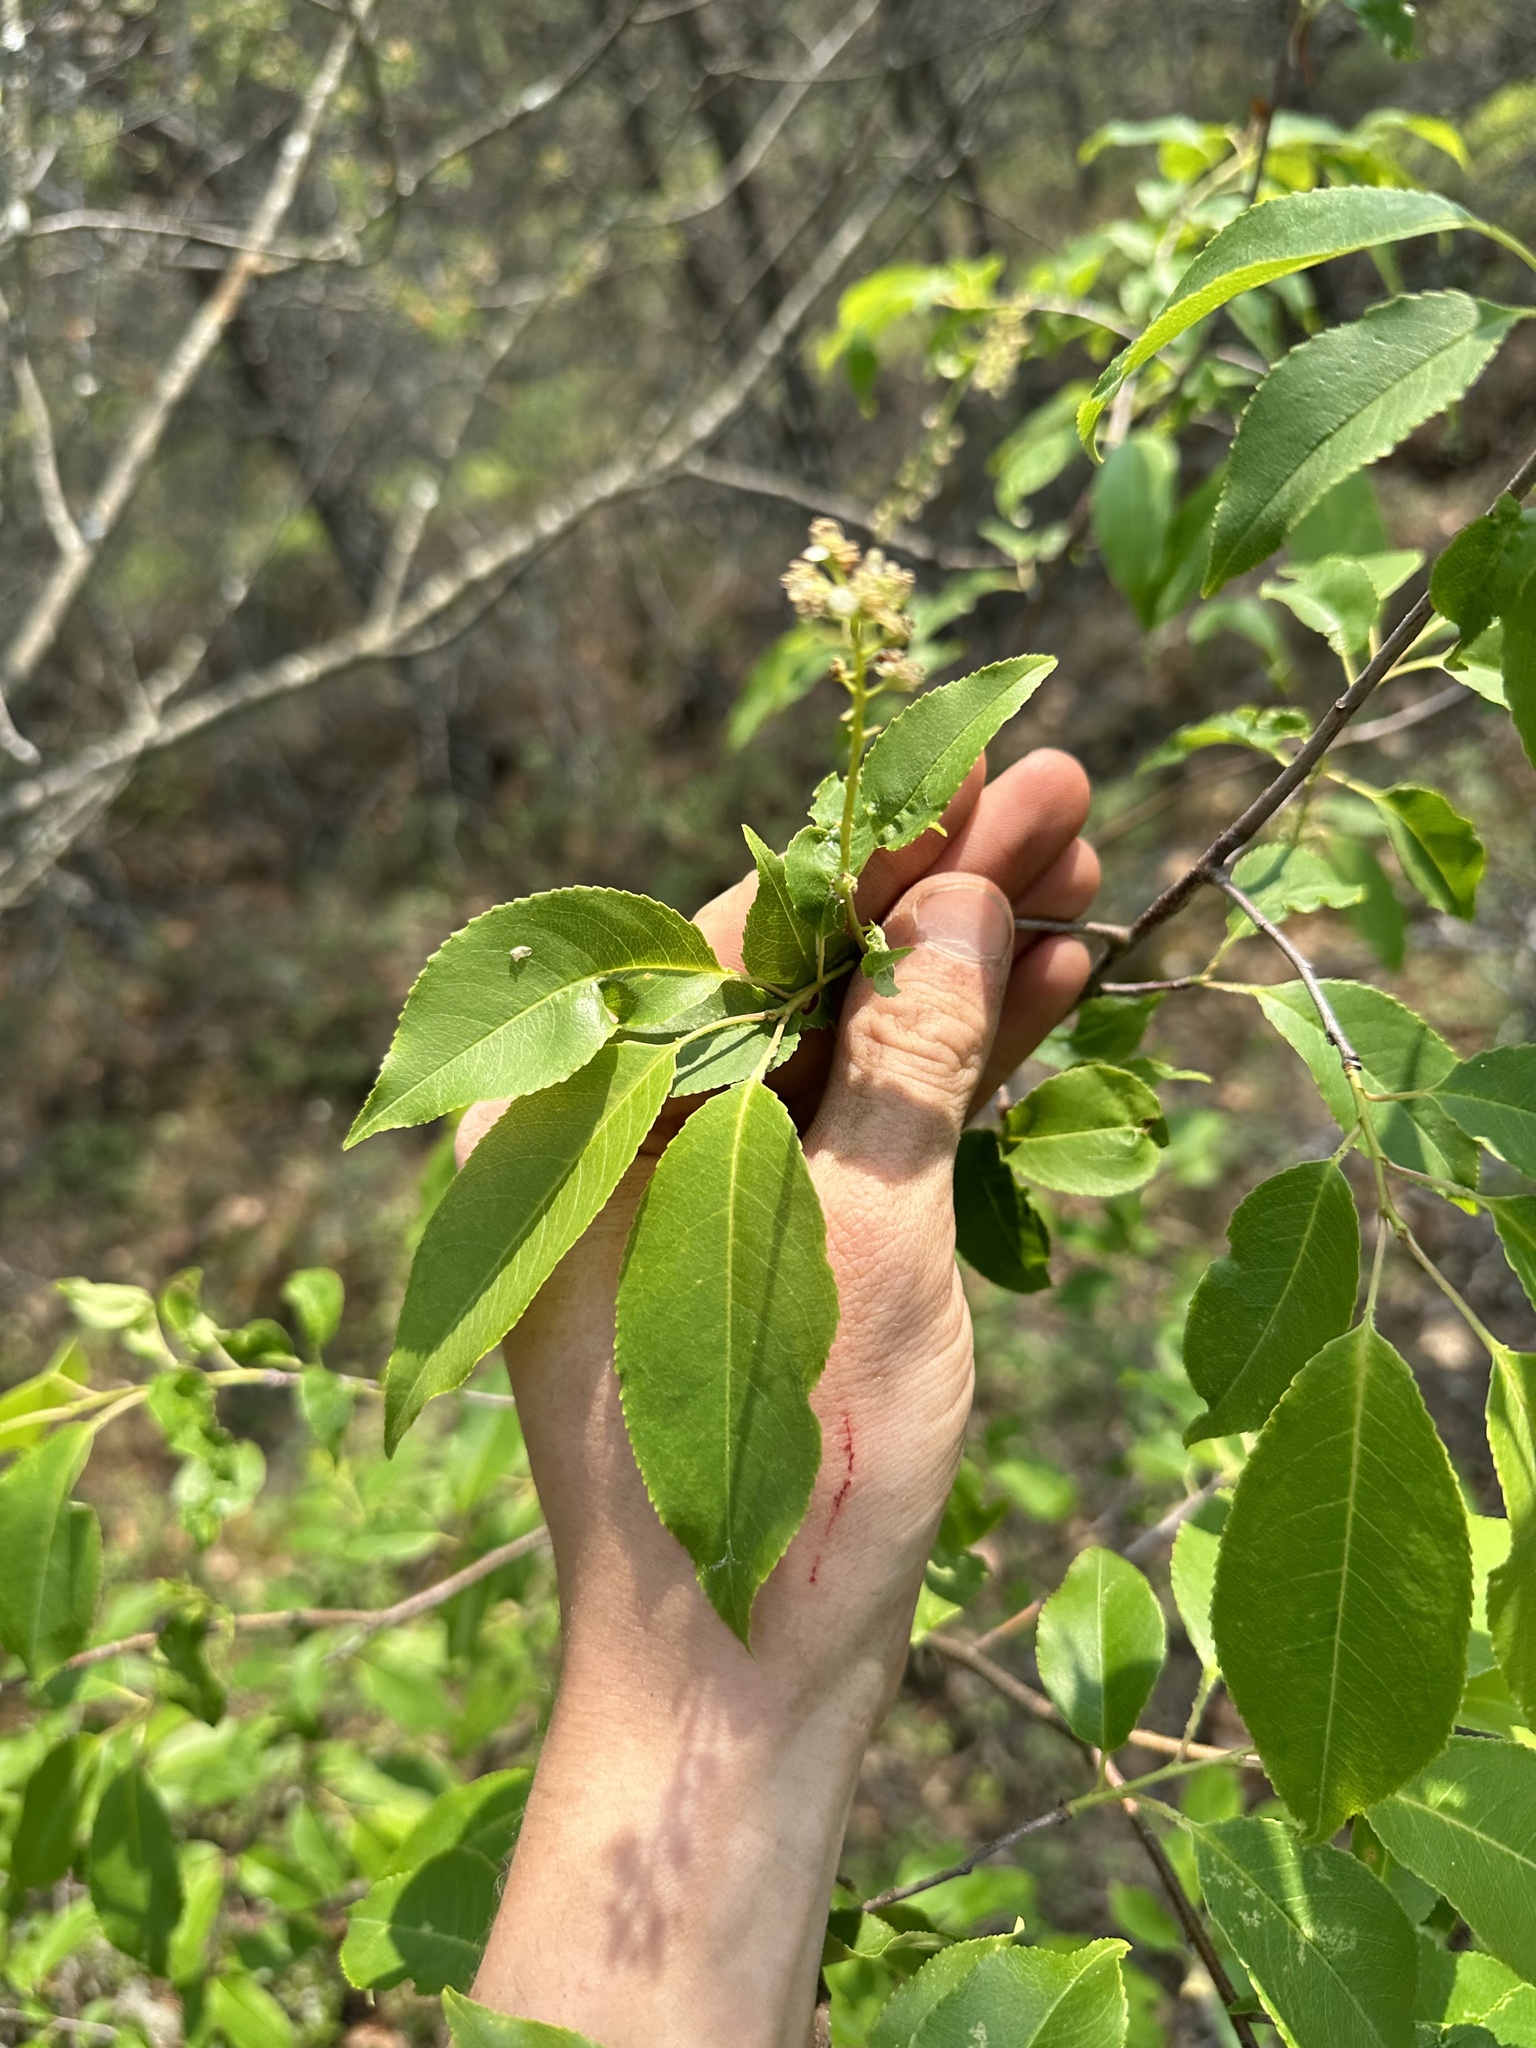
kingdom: Plantae
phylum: Tracheophyta
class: Magnoliopsida
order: Rosales
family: Rosaceae
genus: Prunus
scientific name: Prunus serotina
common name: Black cherry
